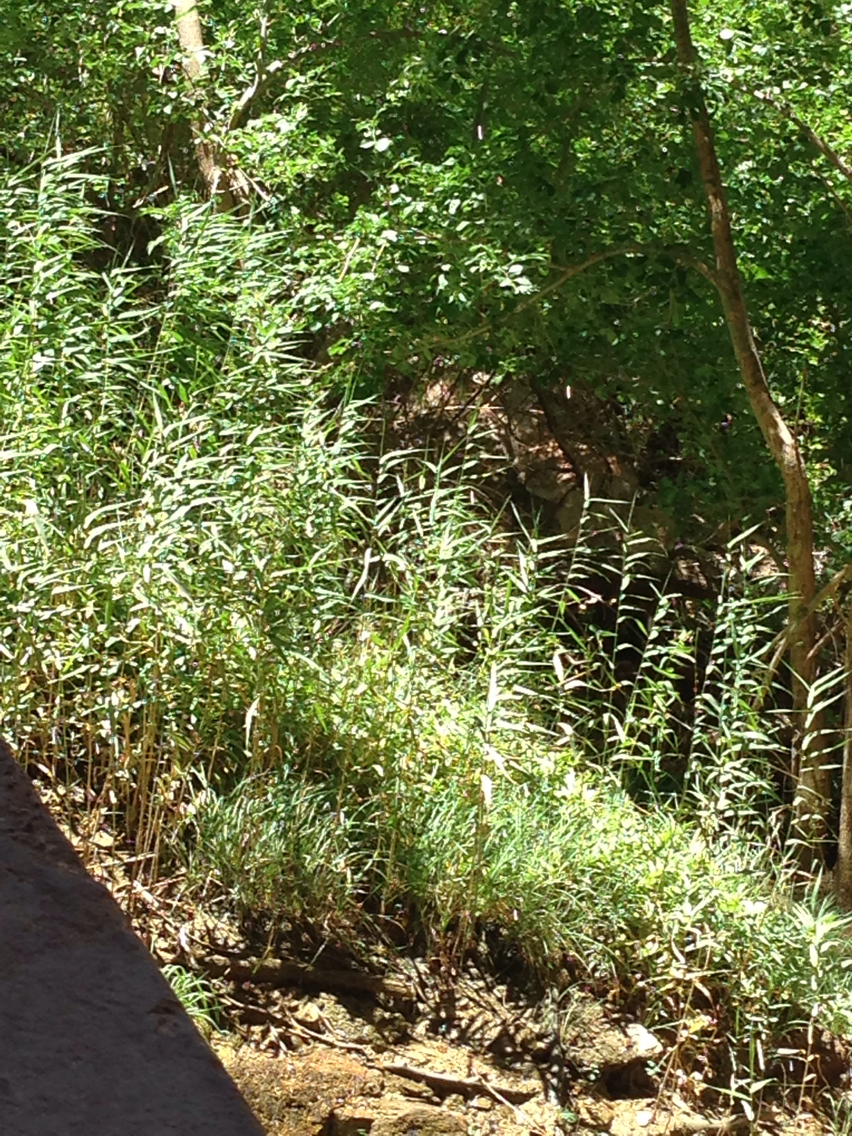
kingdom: Plantae
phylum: Tracheophyta
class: Liliopsida
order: Poales
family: Poaceae
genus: Phragmites
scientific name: Phragmites australis
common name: Common reed
